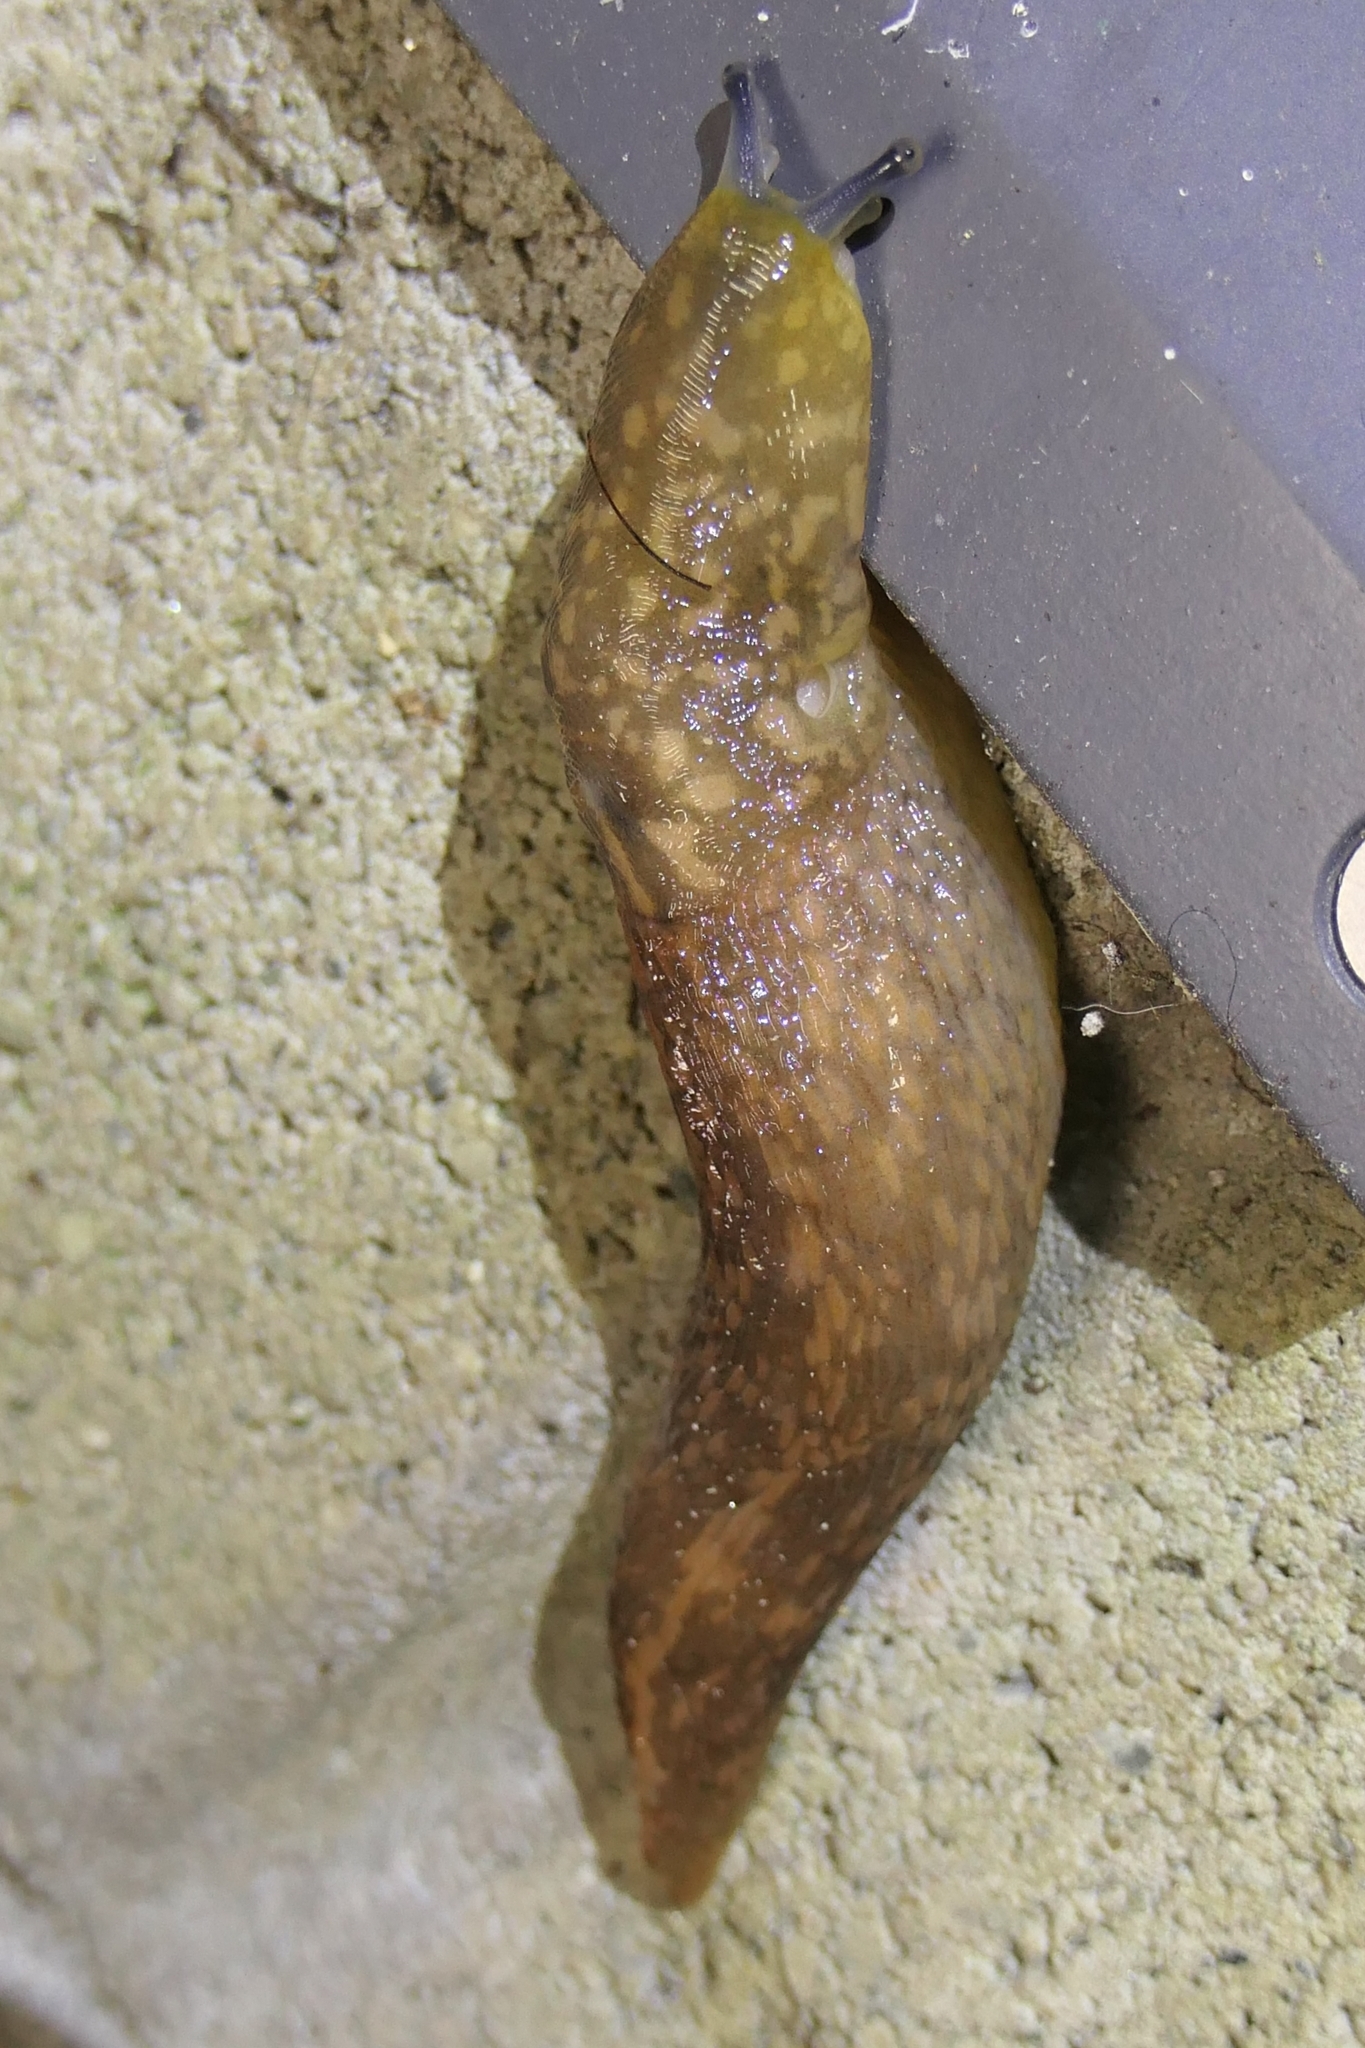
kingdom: Animalia
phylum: Mollusca
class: Gastropoda
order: Stylommatophora
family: Limacidae
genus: Limacus
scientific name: Limacus flavus
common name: Yellow gardenslug
